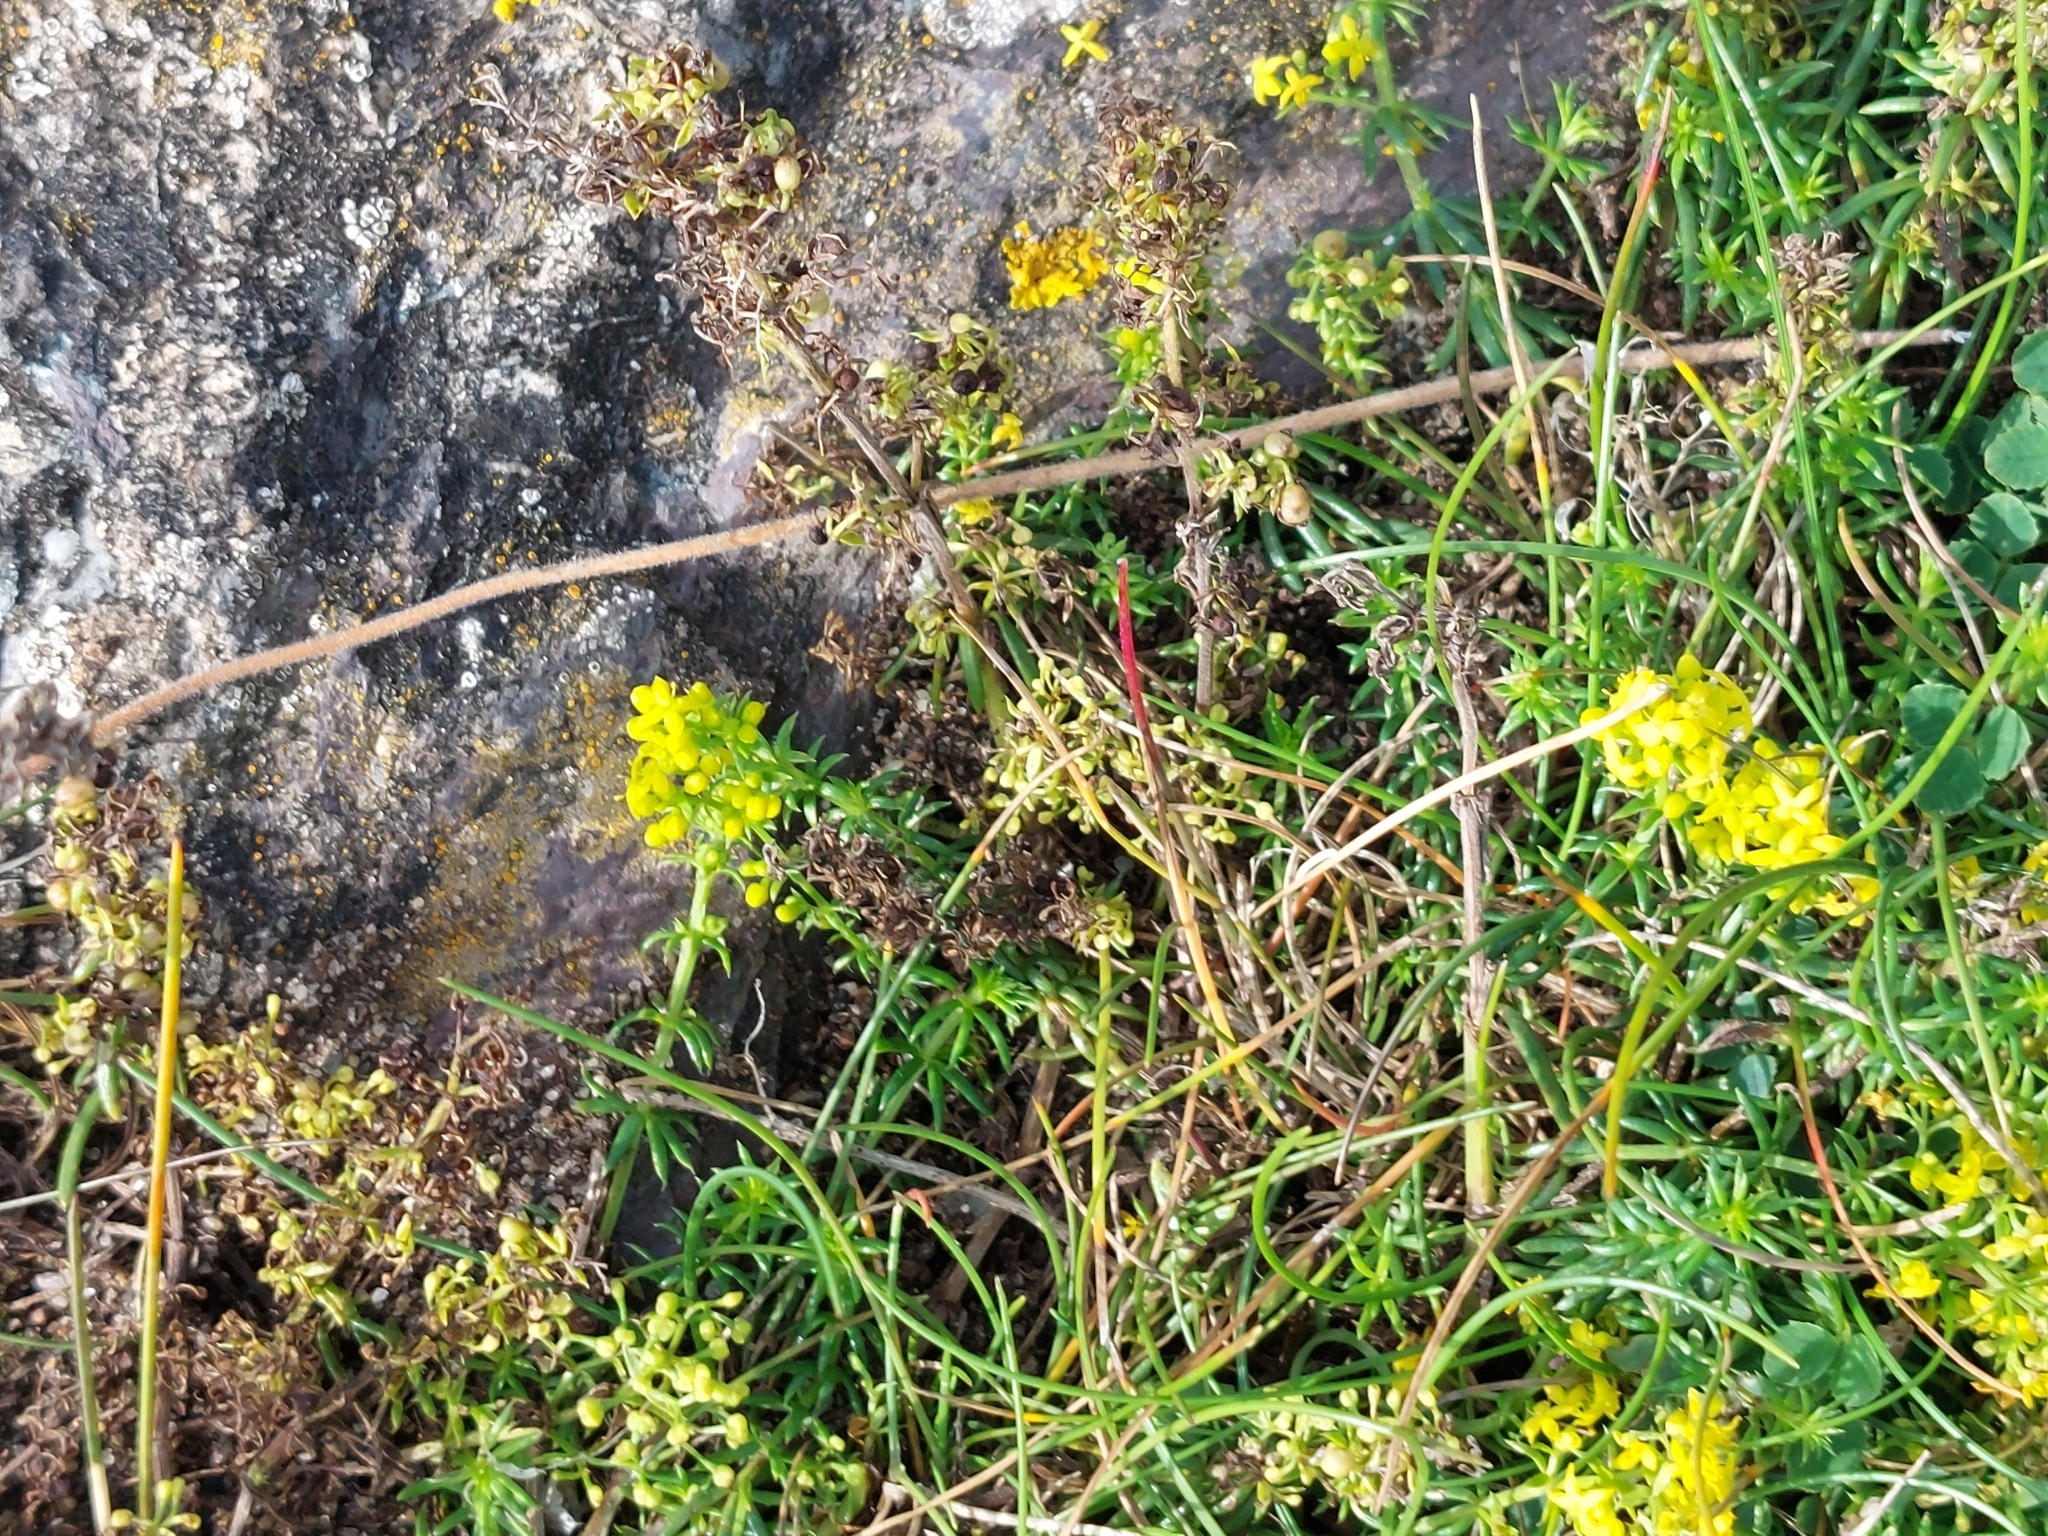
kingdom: Plantae
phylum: Tracheophyta
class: Magnoliopsida
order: Gentianales
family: Rubiaceae
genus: Galium
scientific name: Galium verum
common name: Lady's bedstraw
